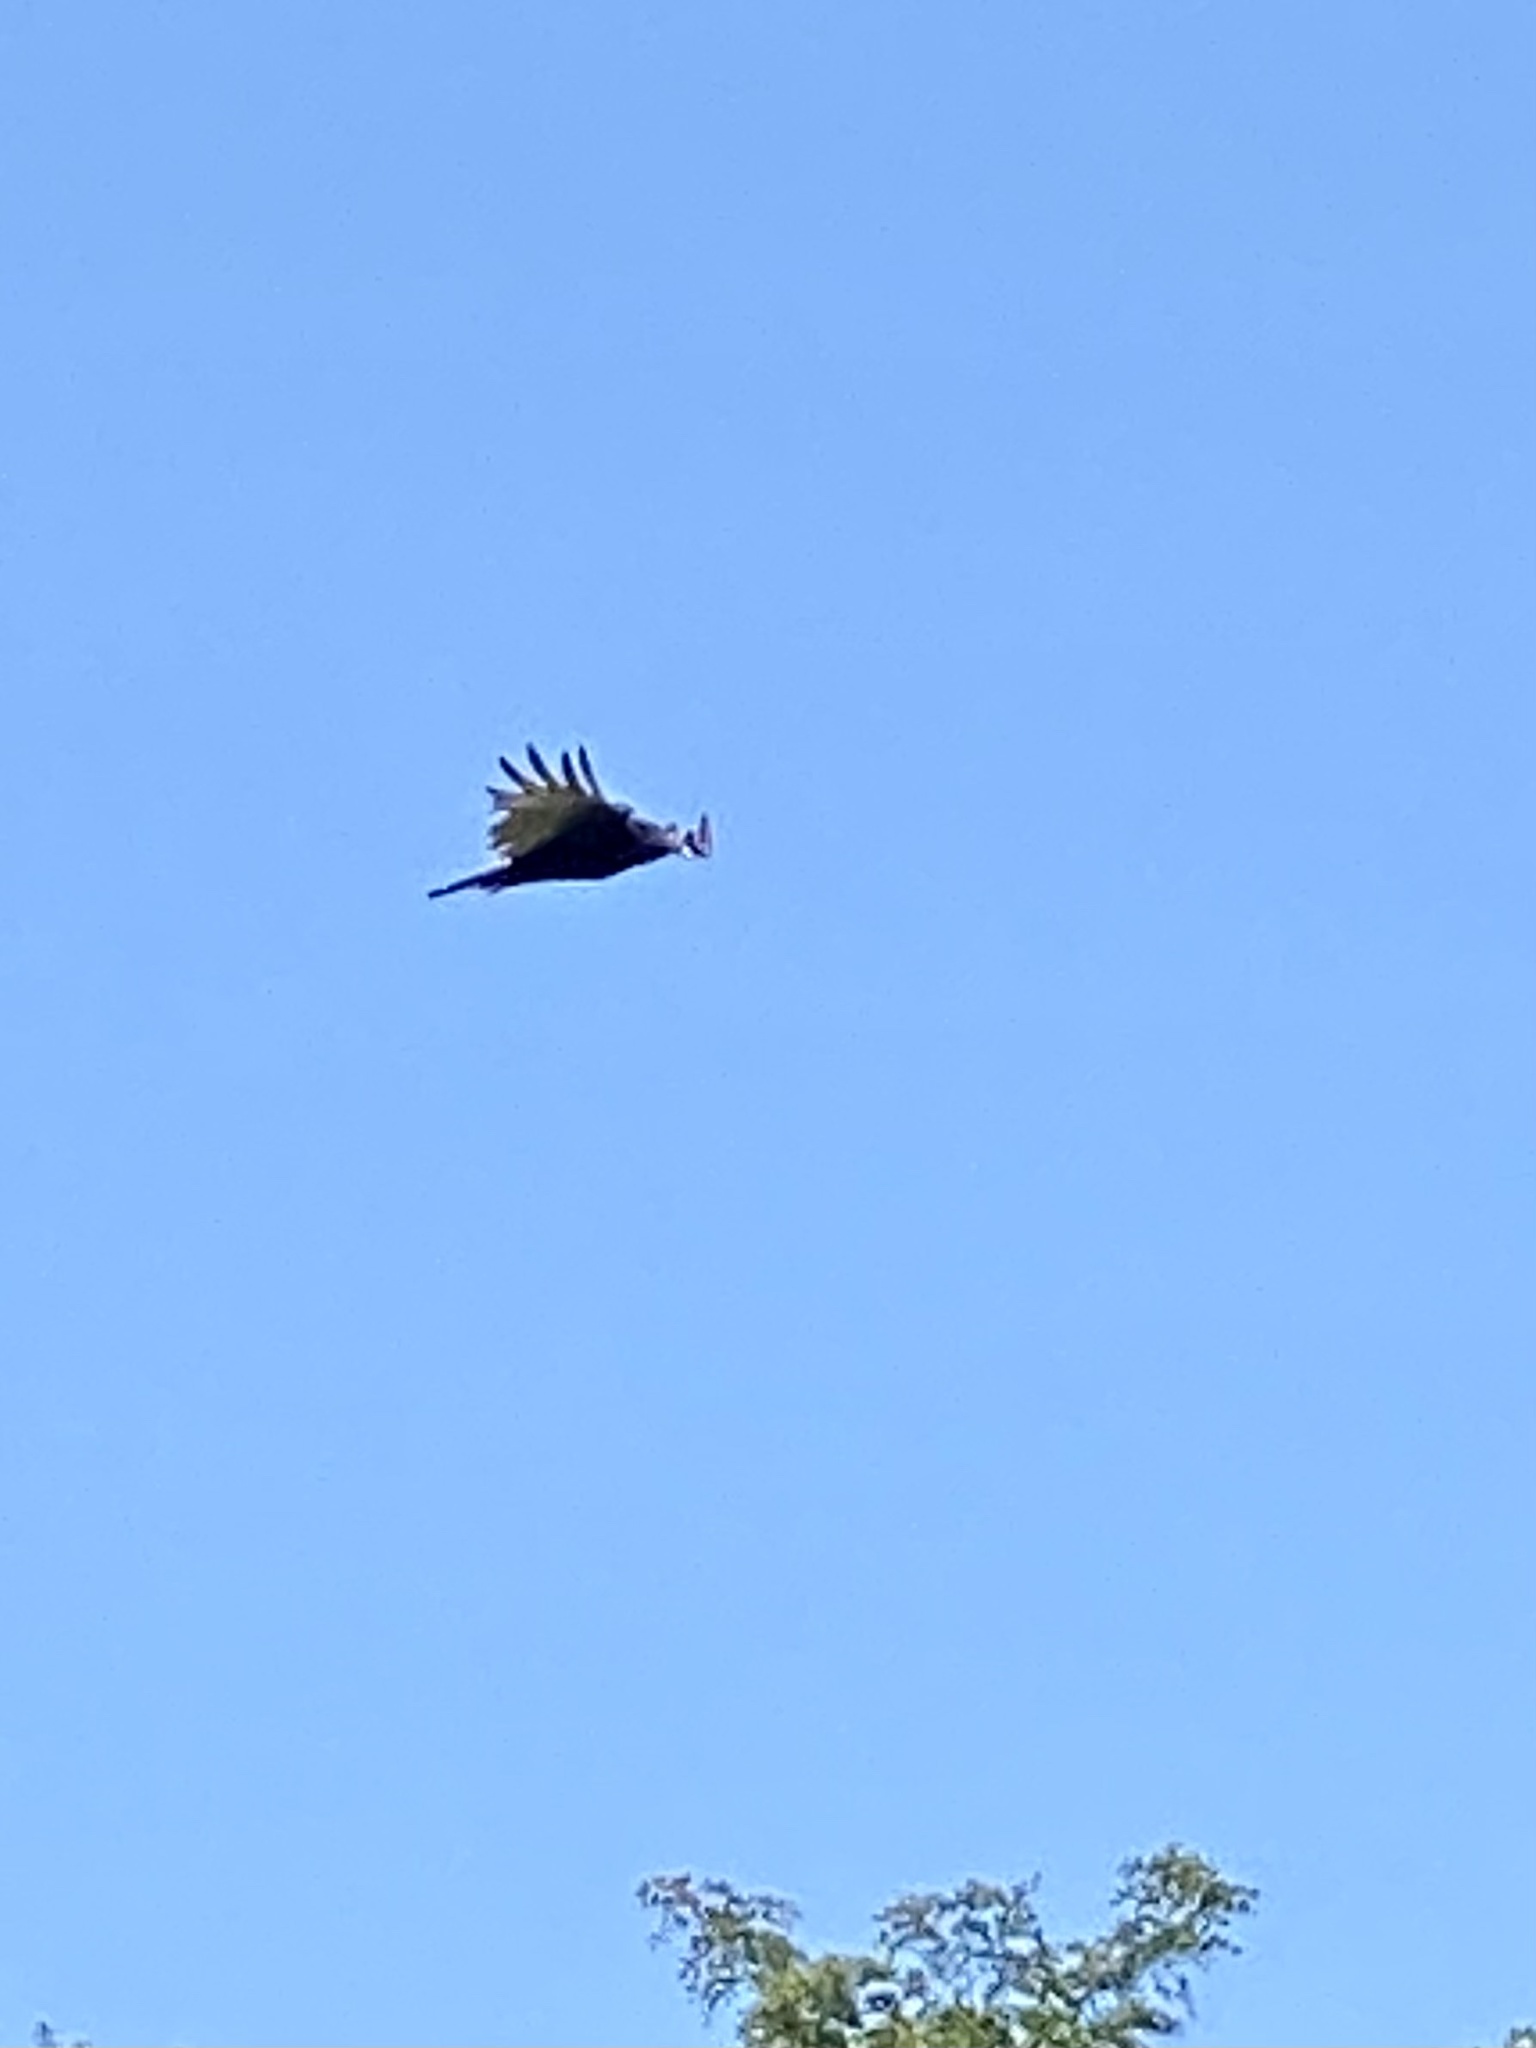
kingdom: Animalia
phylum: Chordata
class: Aves
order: Accipitriformes
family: Cathartidae
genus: Cathartes
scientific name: Cathartes aura
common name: Turkey vulture
